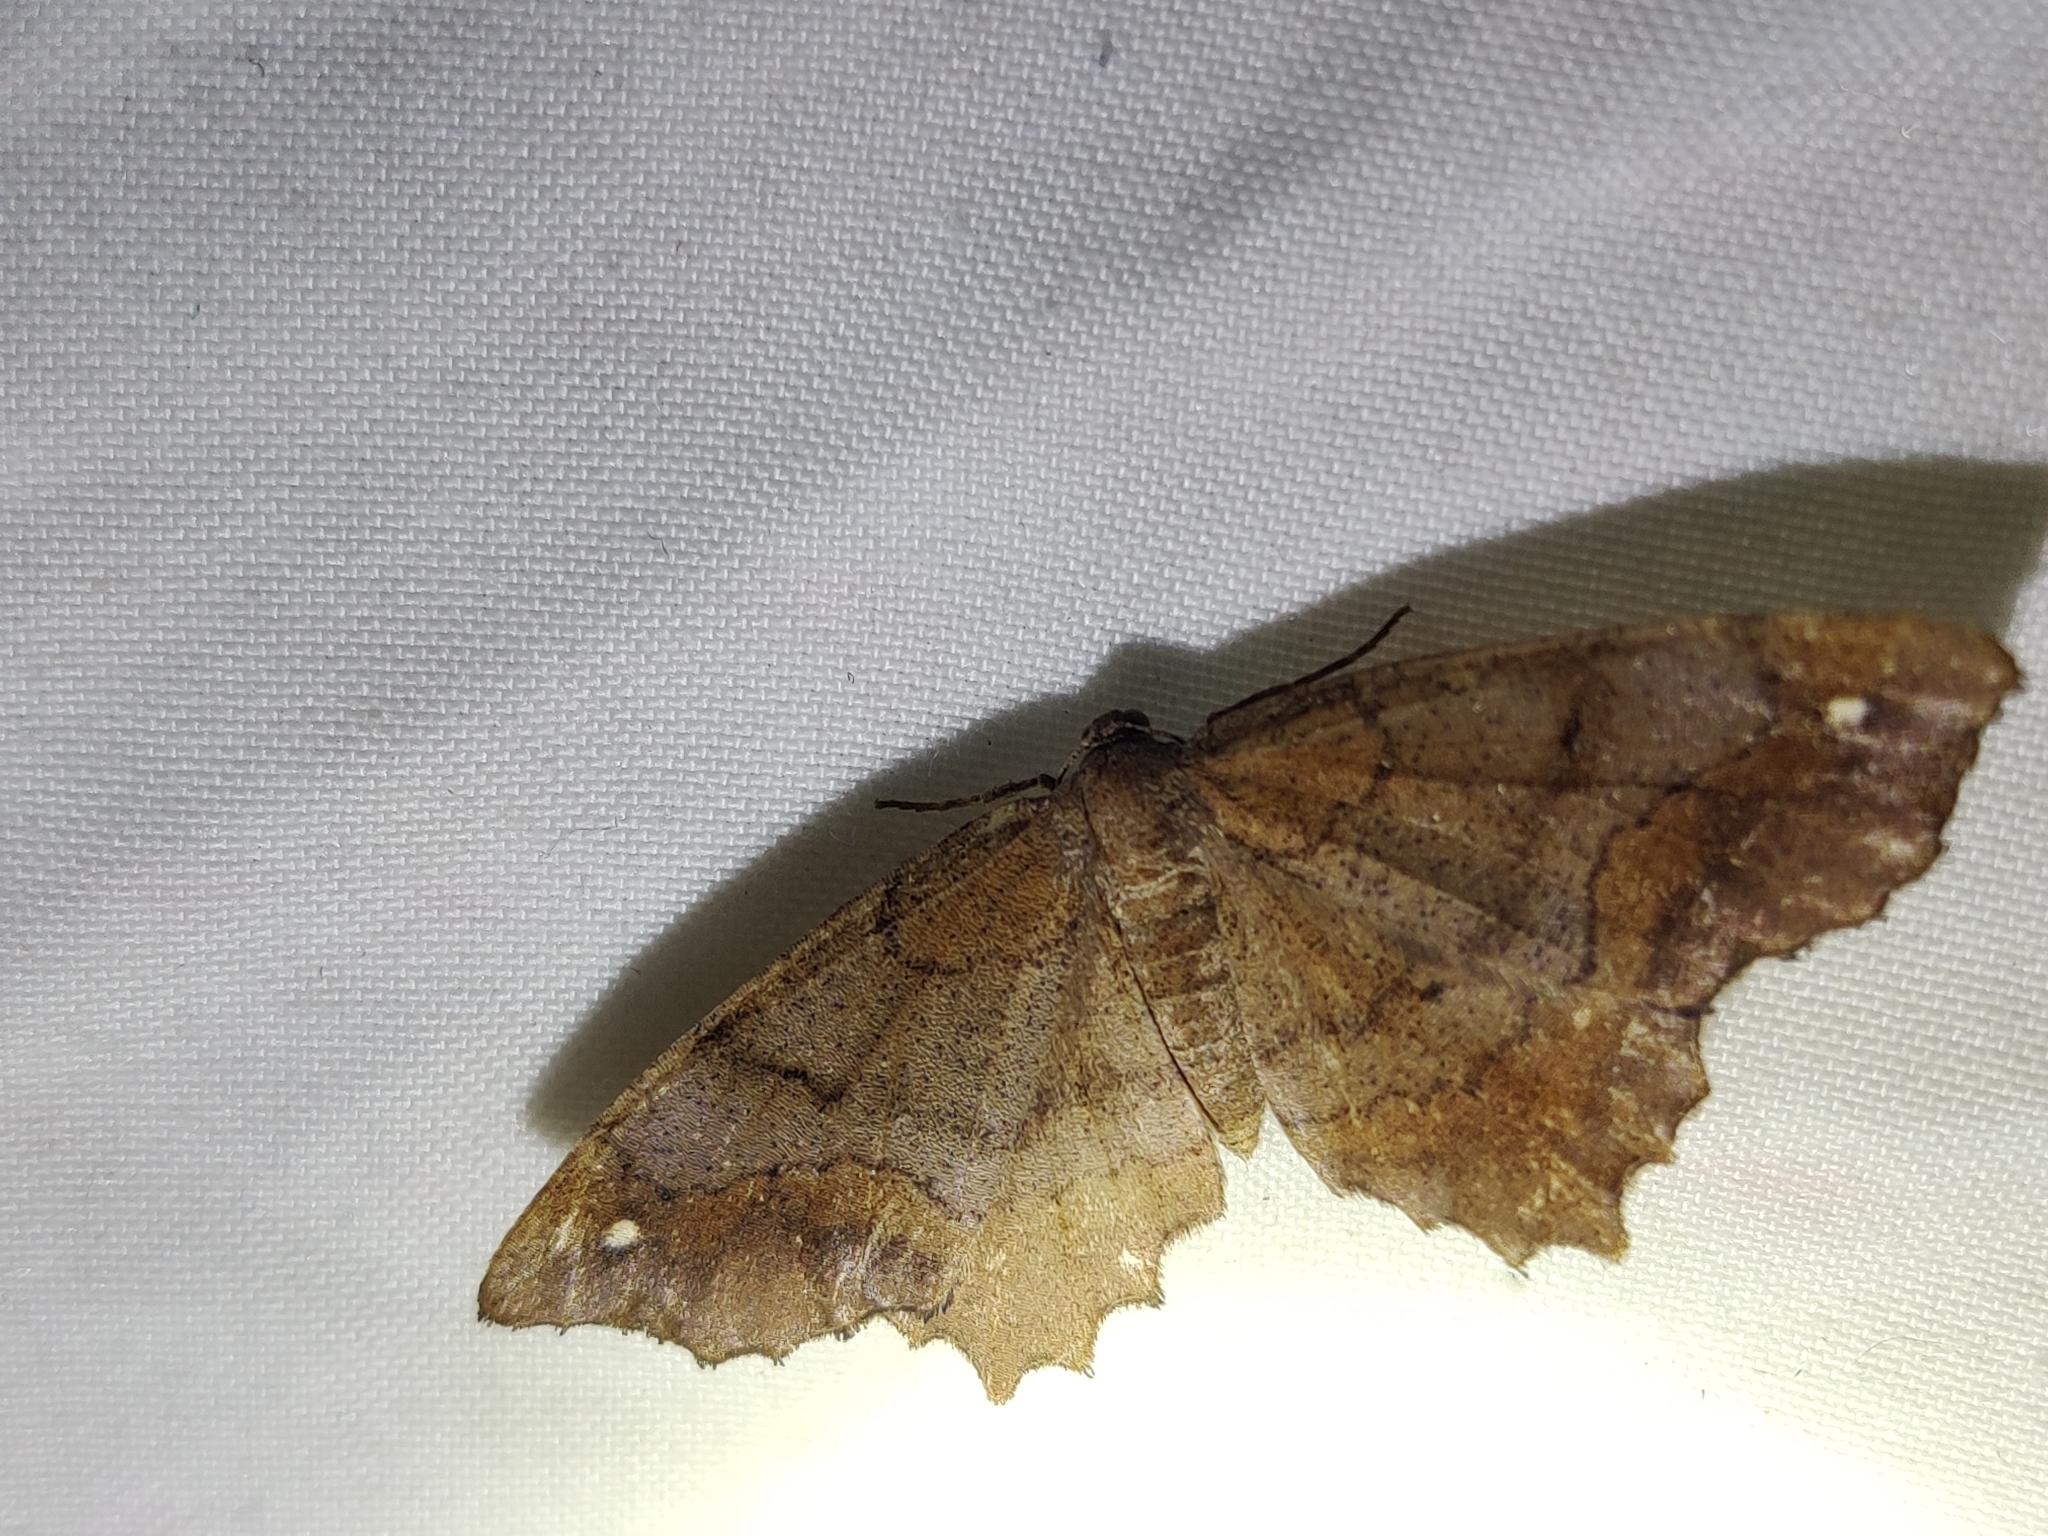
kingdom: Animalia
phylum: Arthropoda
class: Insecta
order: Lepidoptera
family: Geometridae
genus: Hypagyrtis
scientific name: Hypagyrtis esther
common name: Esther moth
